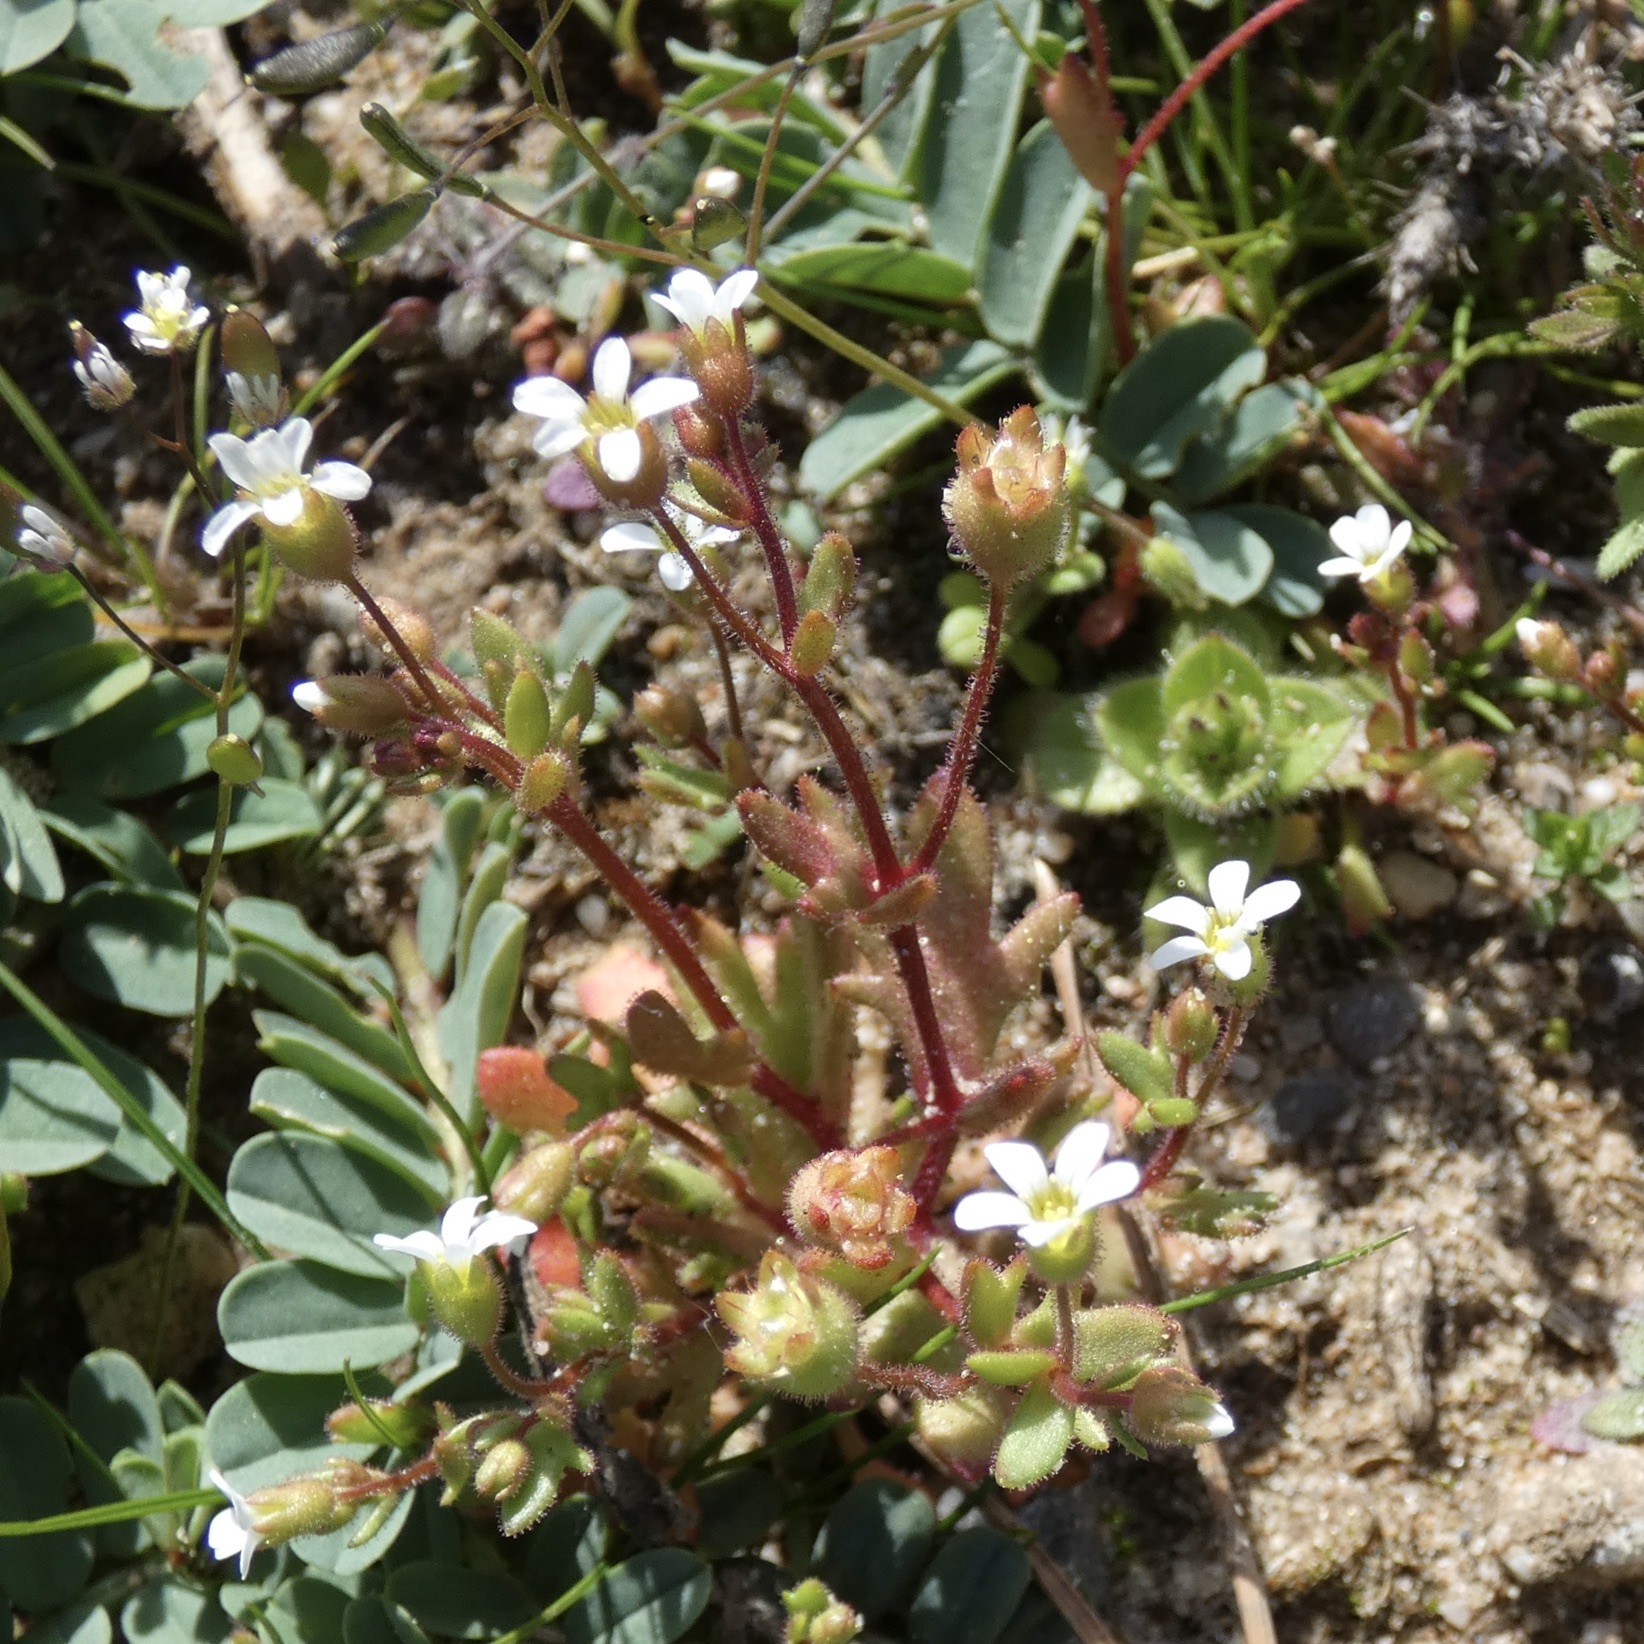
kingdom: Plantae
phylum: Tracheophyta
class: Magnoliopsida
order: Saxifragales
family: Saxifragaceae
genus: Saxifraga
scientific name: Saxifraga tridactylites
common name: Rue-leaved saxifrage
